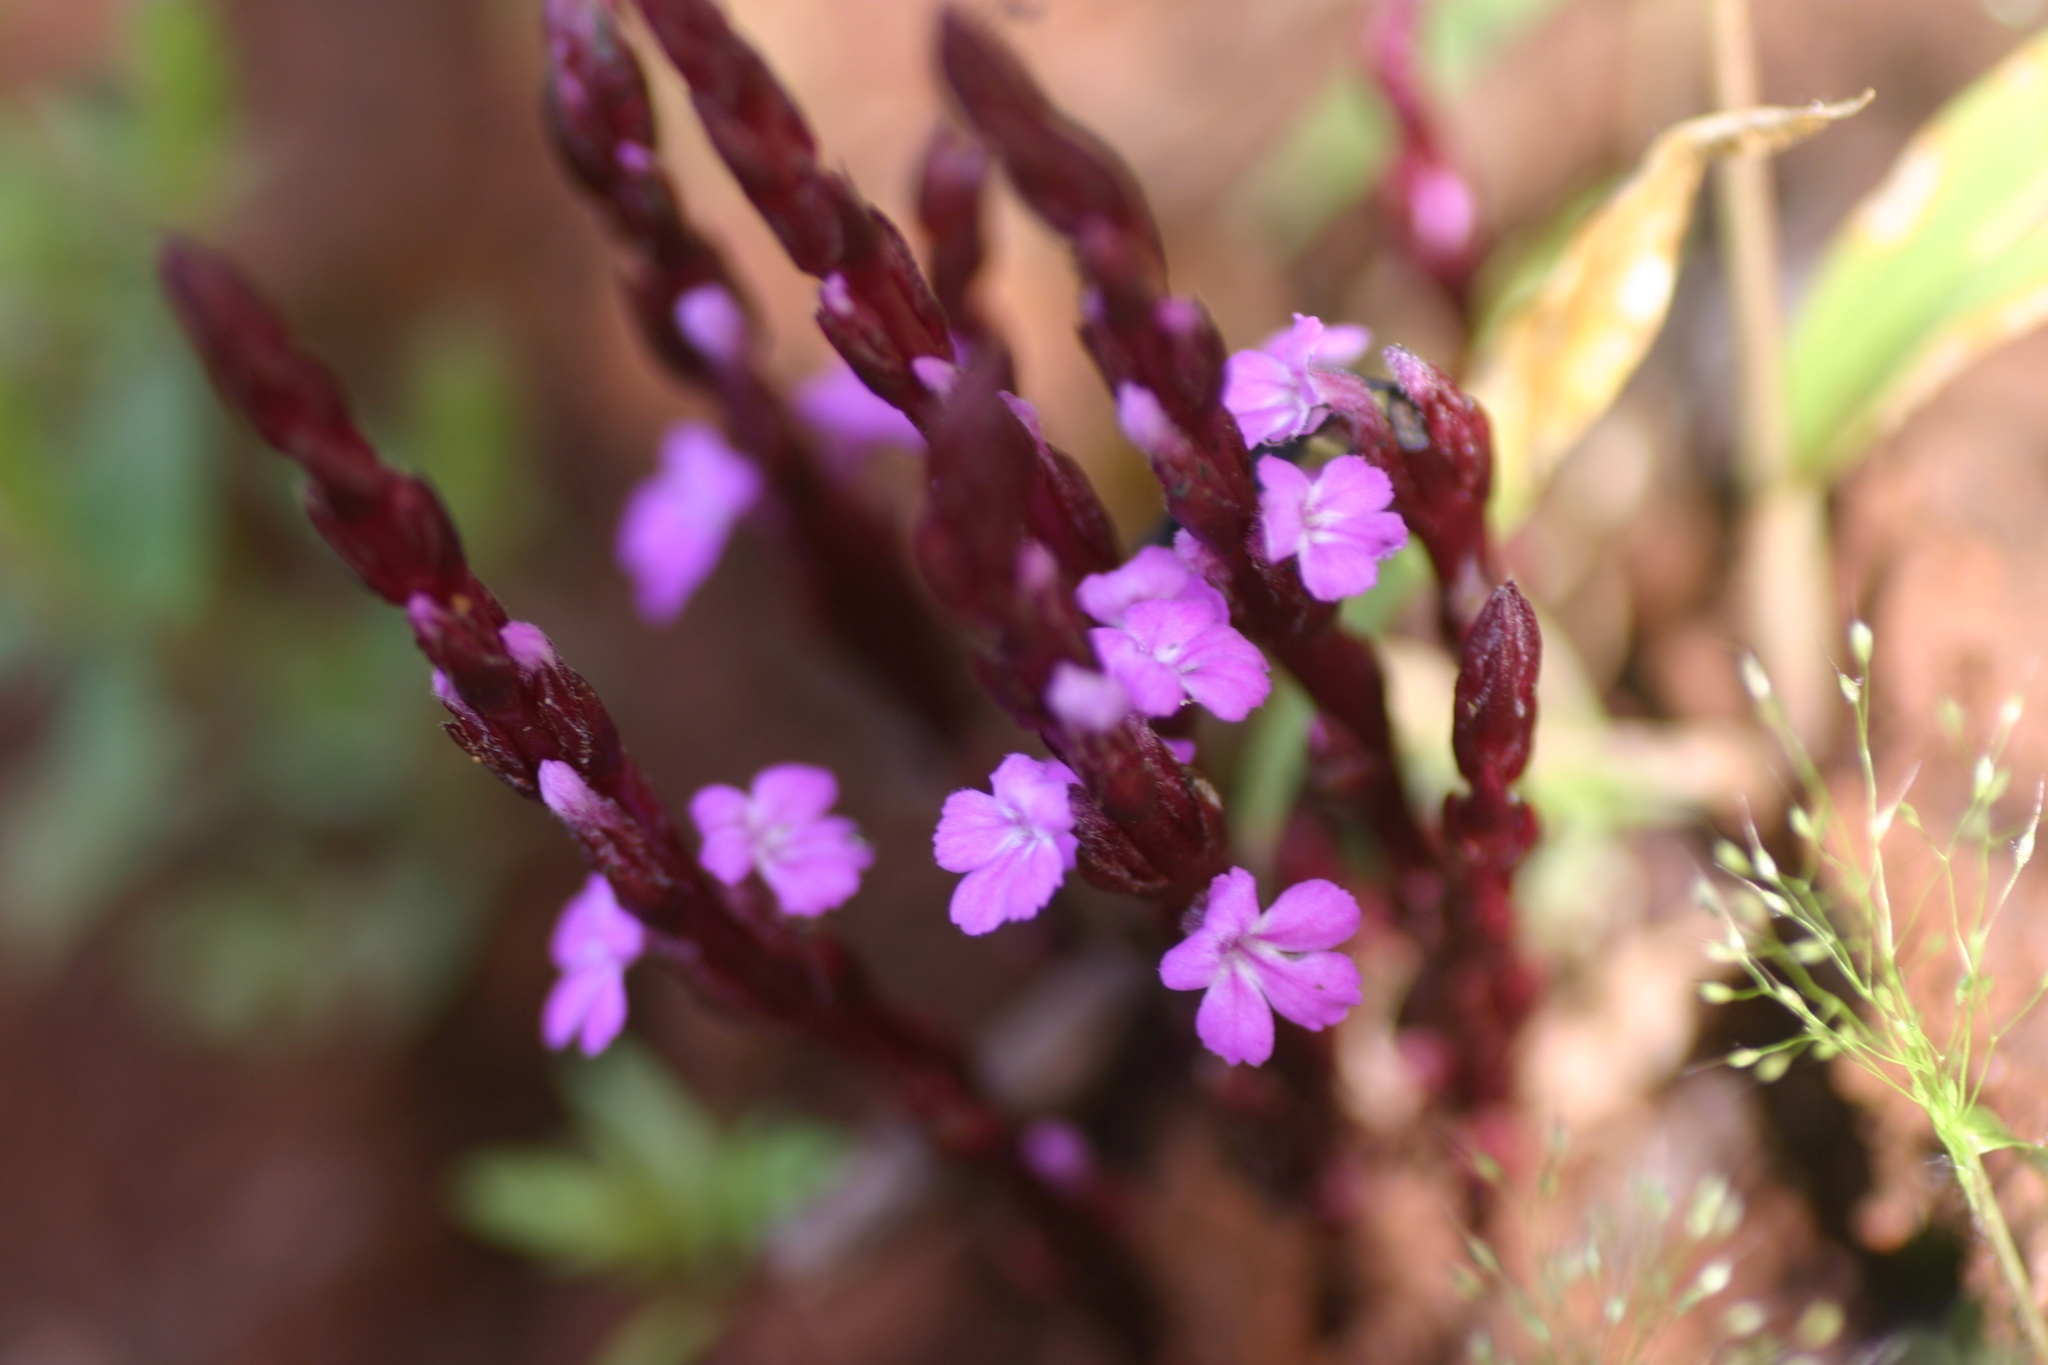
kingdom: Plantae
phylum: Tracheophyta
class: Magnoliopsida
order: Lamiales
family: Orobanchaceae
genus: Striga
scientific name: Striga gesnerioides
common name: Cowpea witchweed
